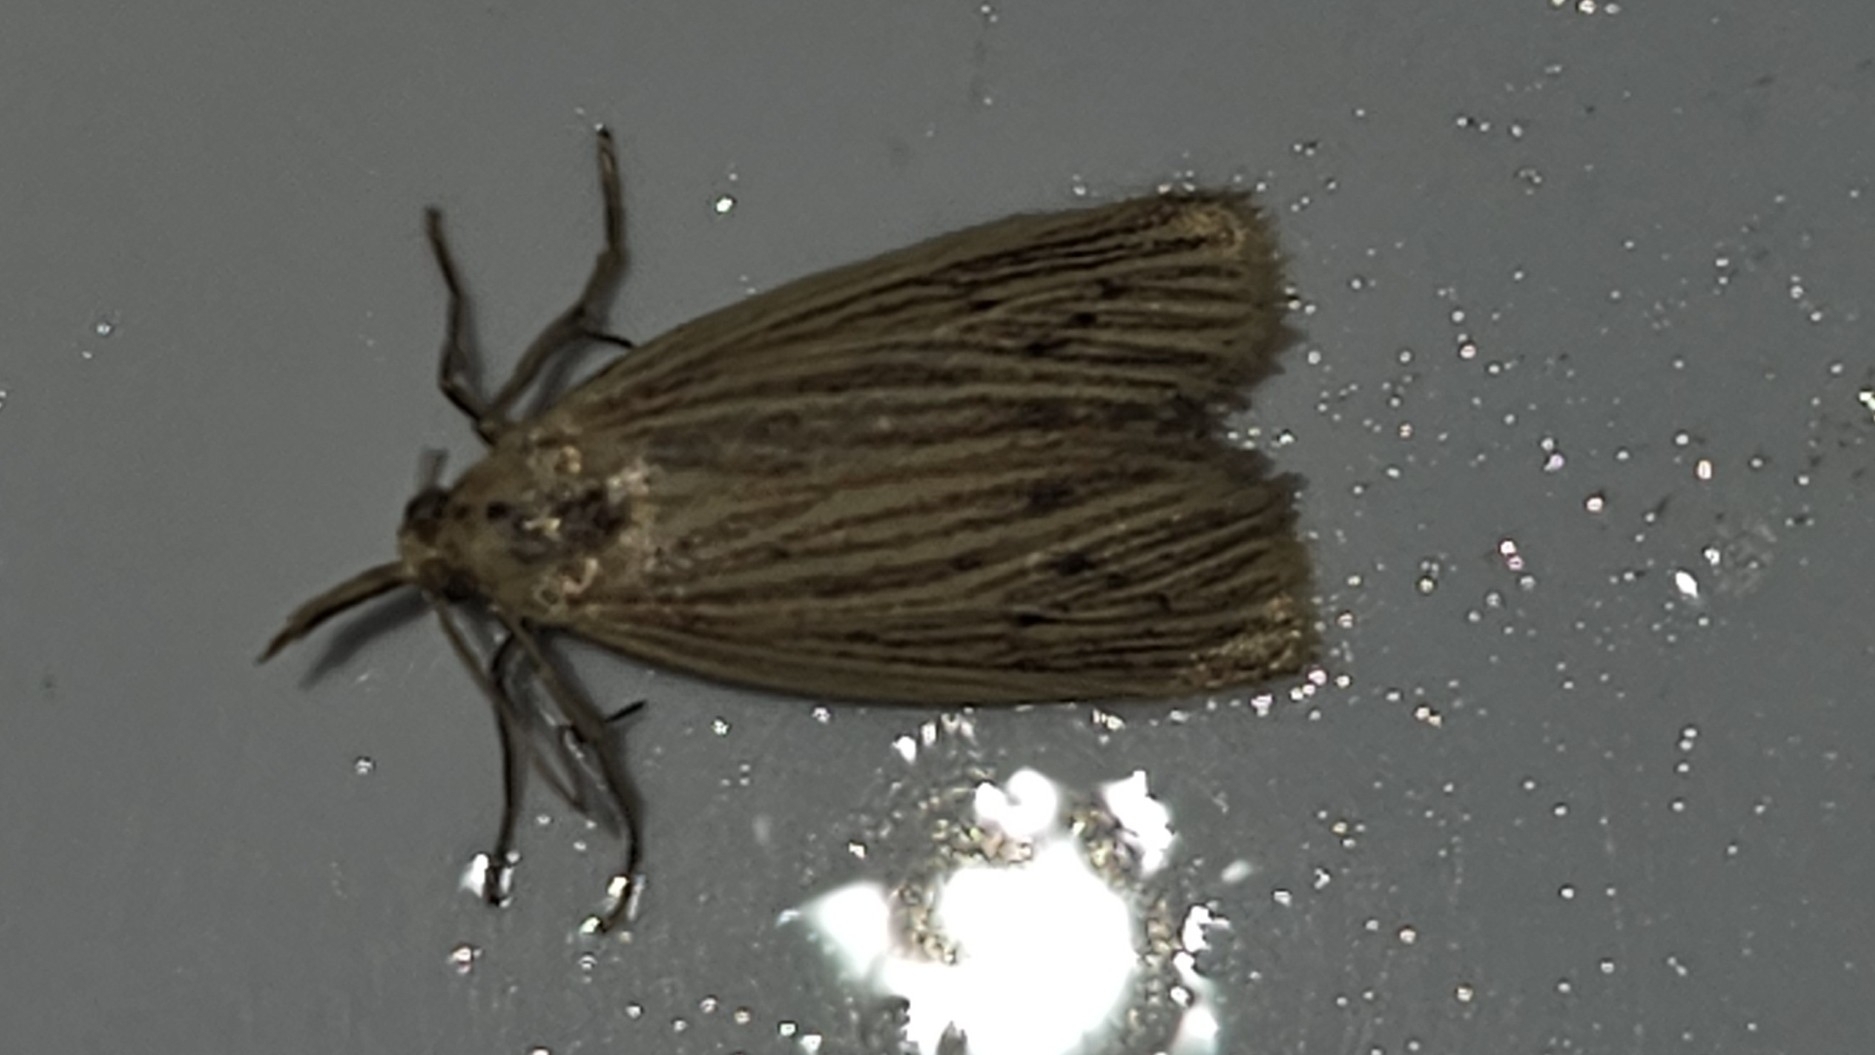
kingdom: Animalia
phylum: Arthropoda
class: Insecta
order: Lepidoptera
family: Pyralidae
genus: Ematheudes
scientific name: Ematheudes punctellus
